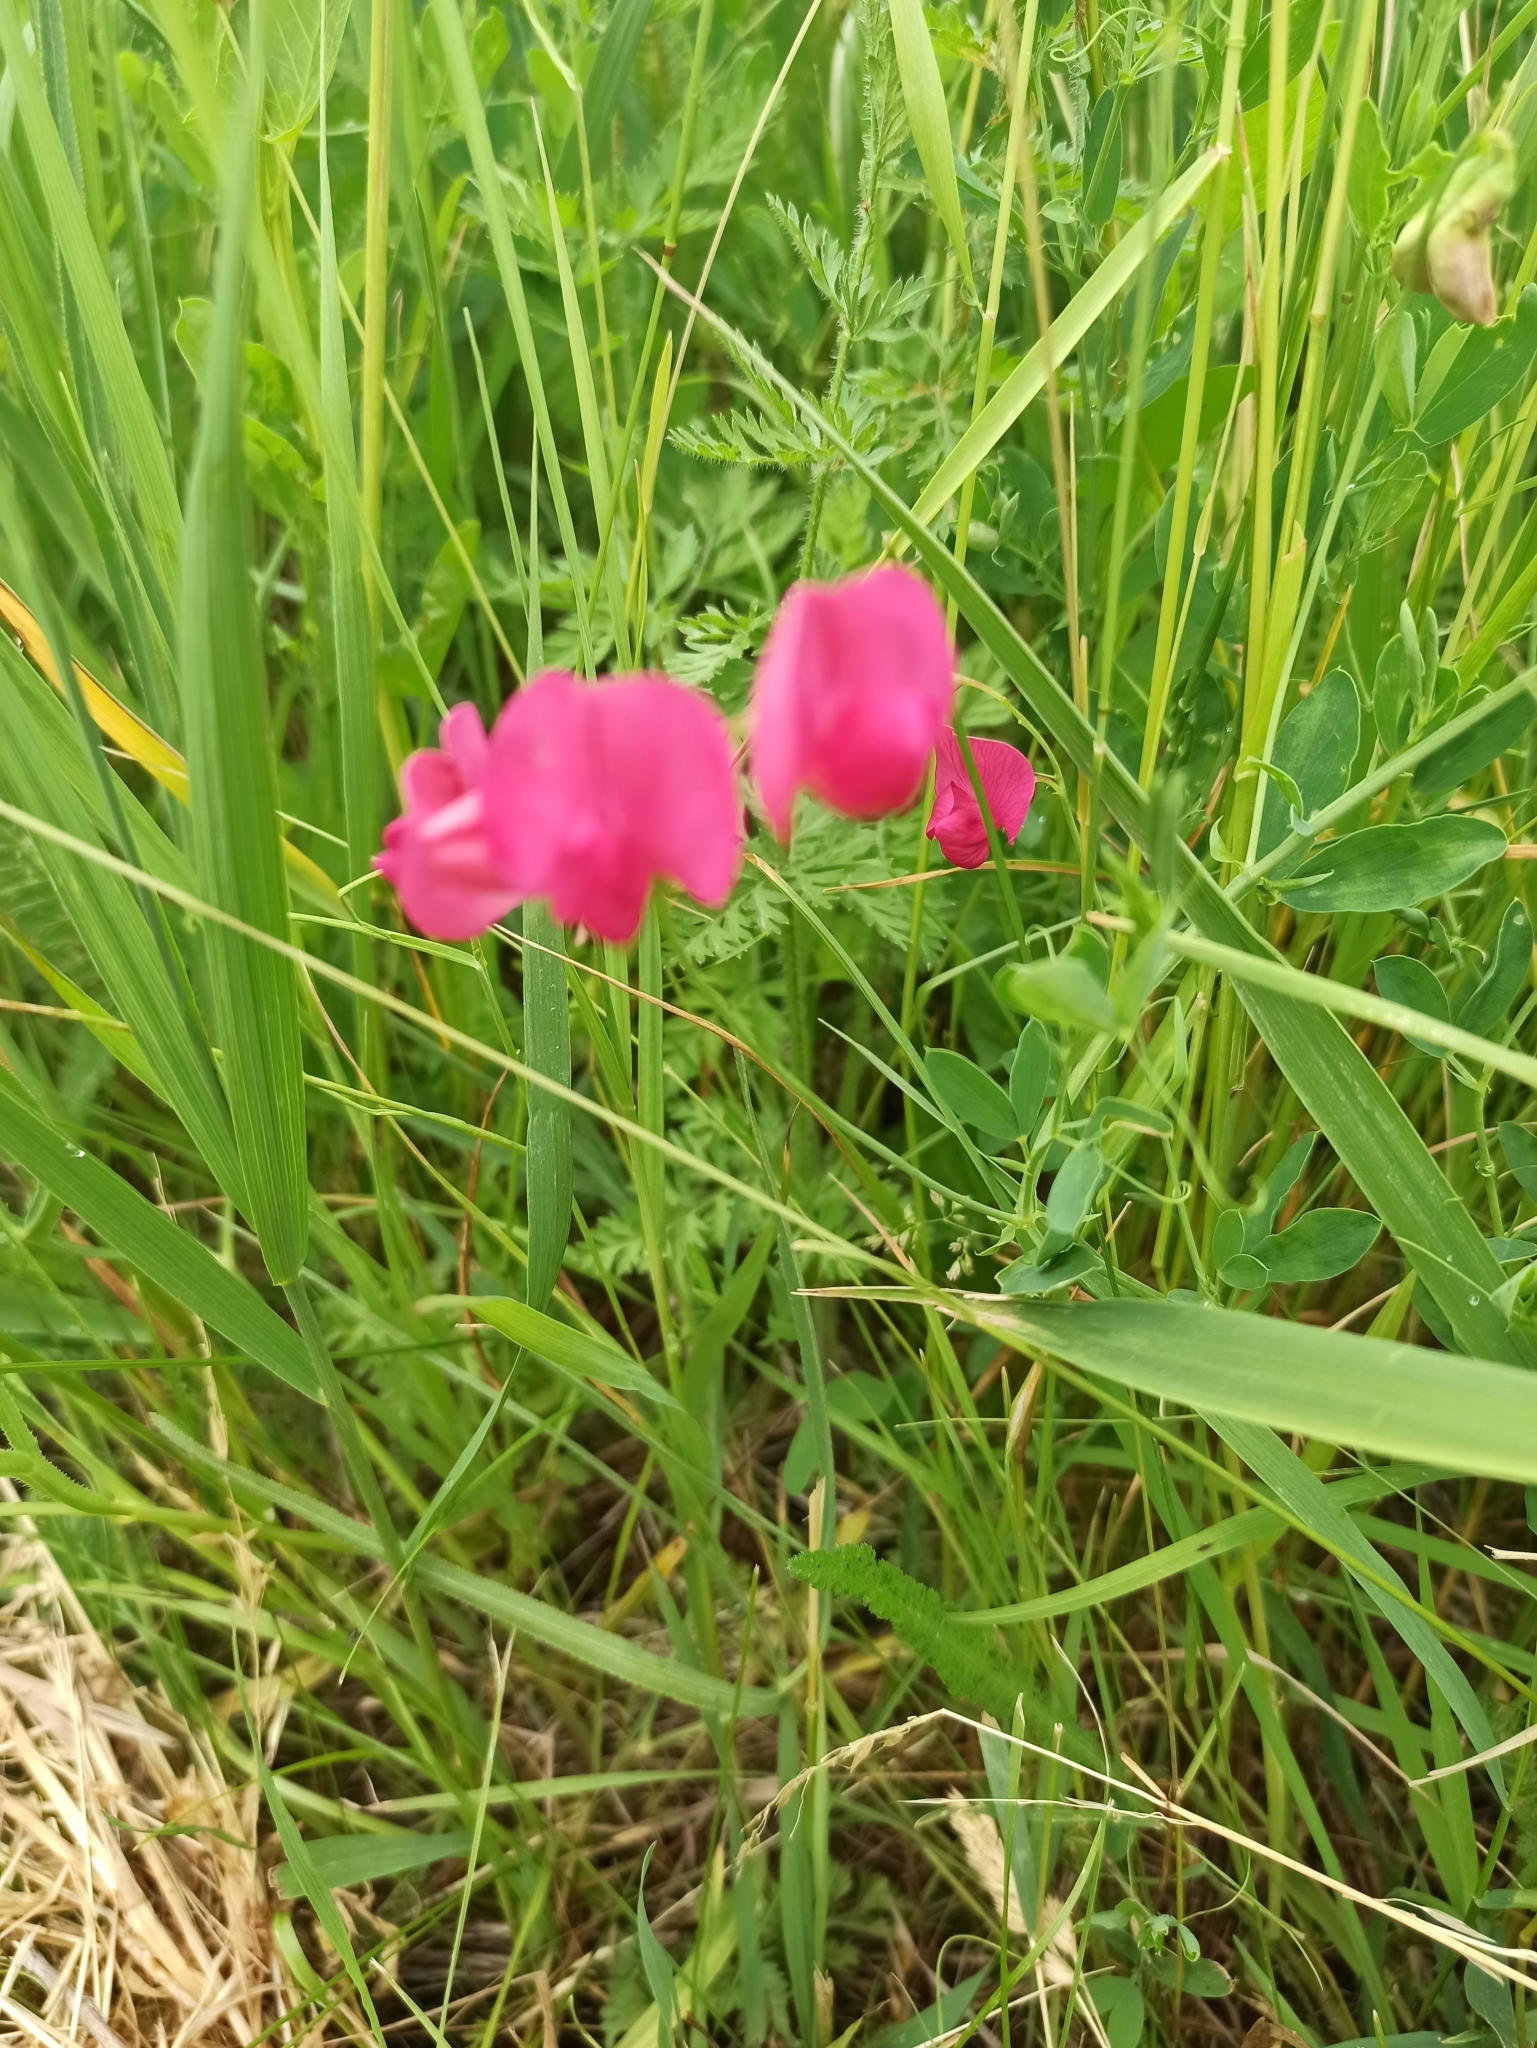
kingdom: Plantae
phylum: Tracheophyta
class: Magnoliopsida
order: Fabales
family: Fabaceae
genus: Lathyrus
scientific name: Lathyrus tuberosus
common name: Tuberous pea
